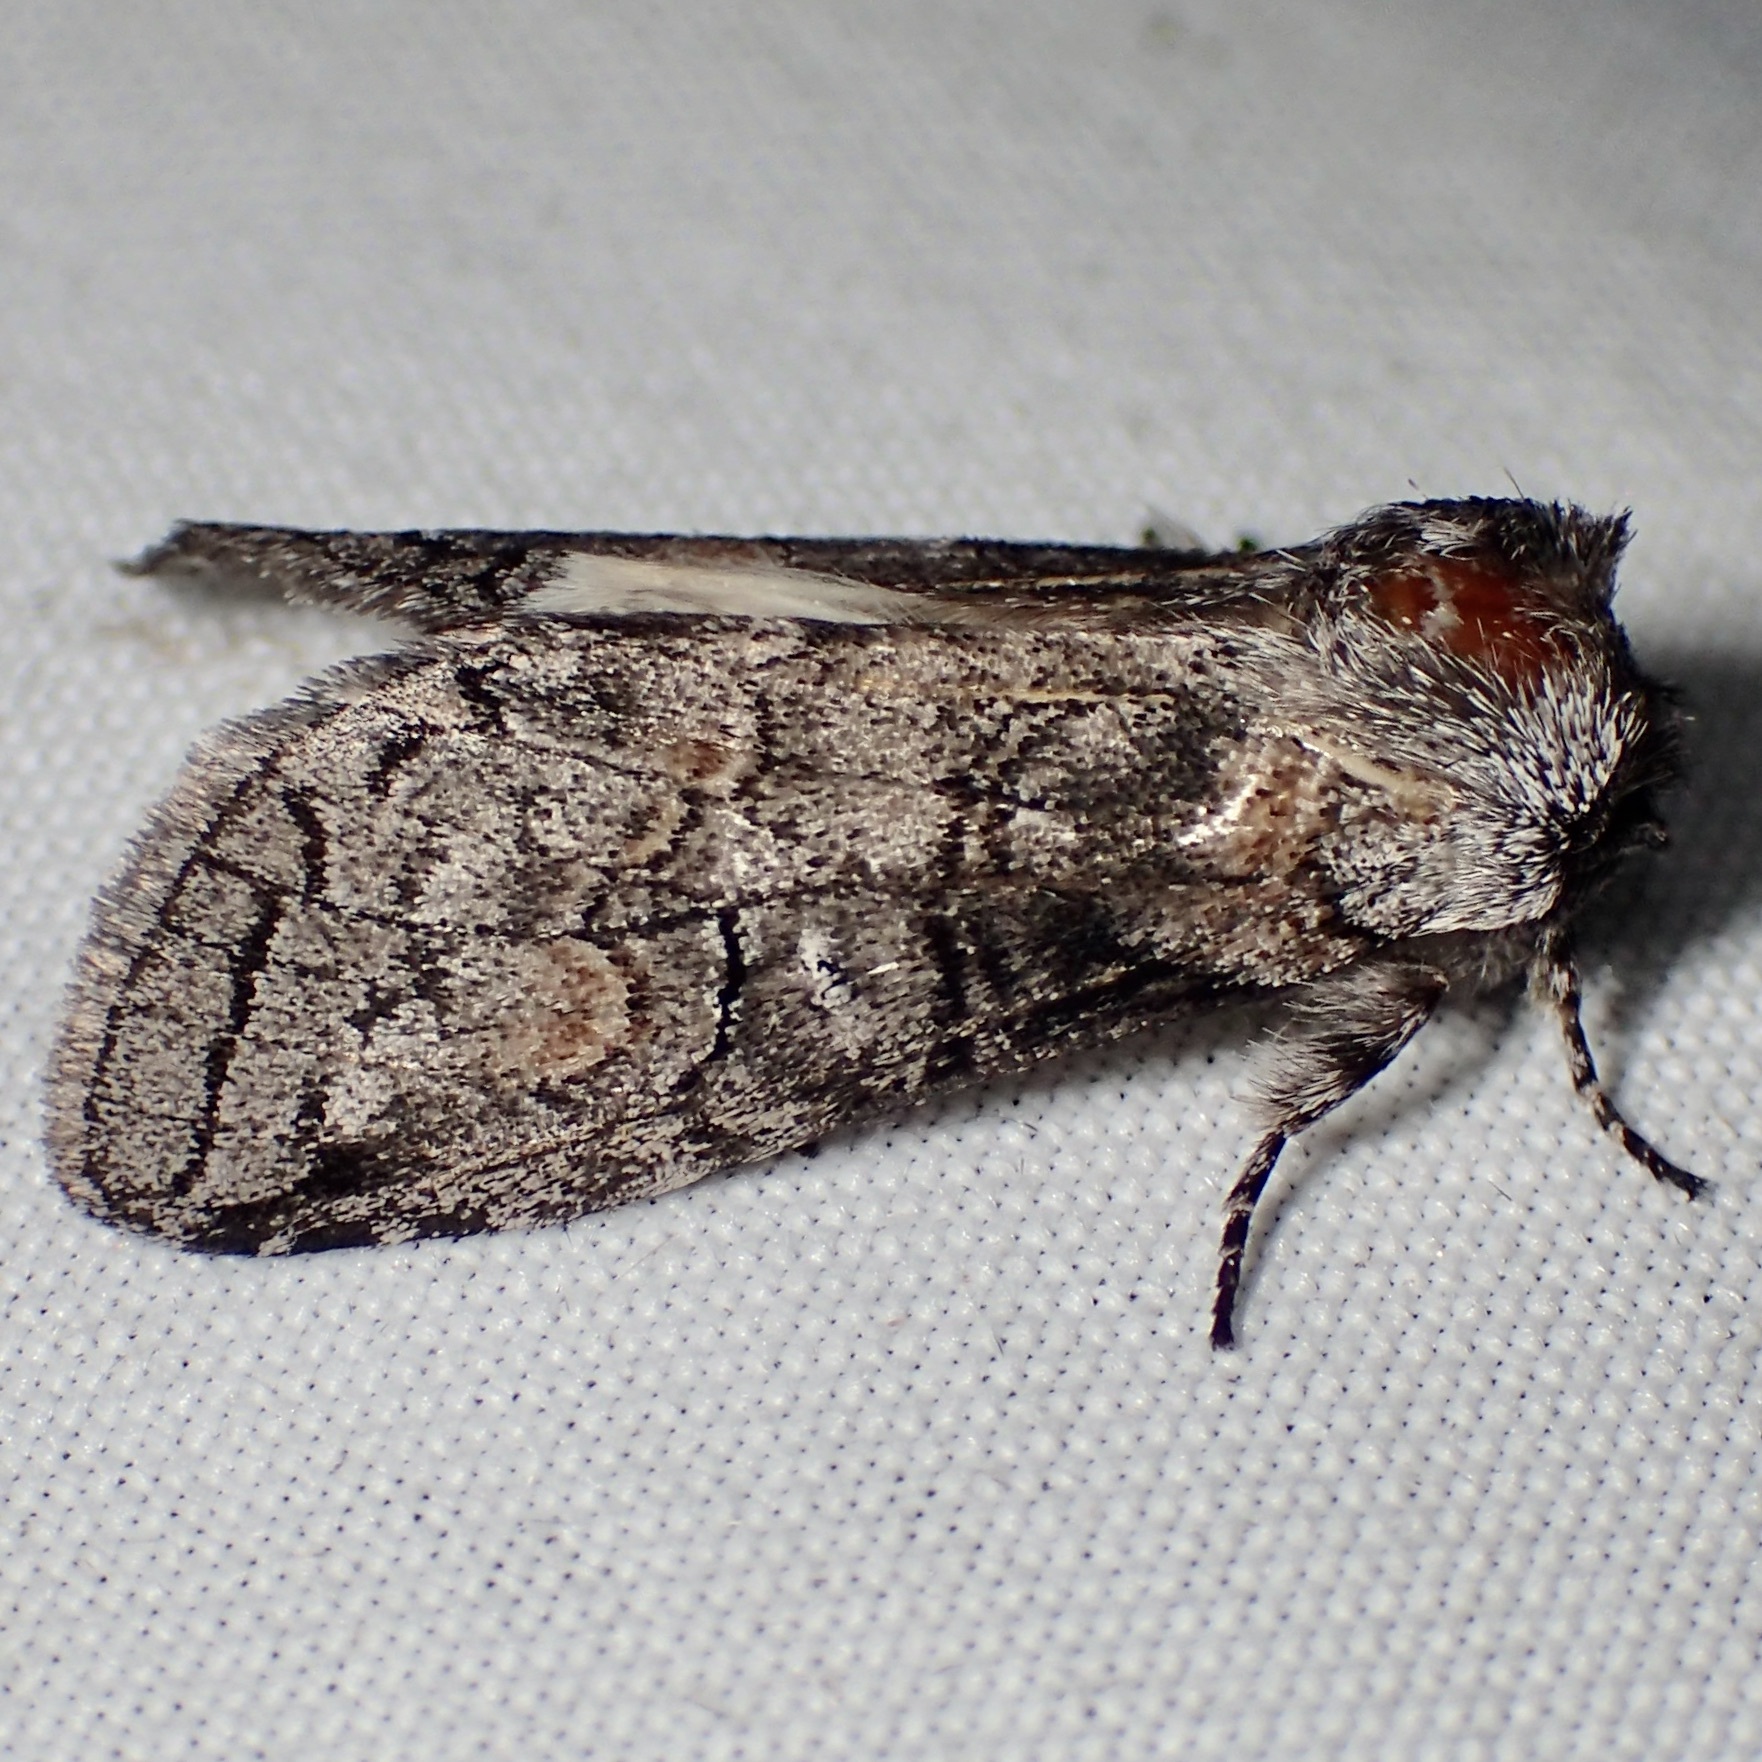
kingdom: Animalia
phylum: Arthropoda
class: Insecta
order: Lepidoptera
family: Notodontidae
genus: Afilia
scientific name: Afilia oslari
